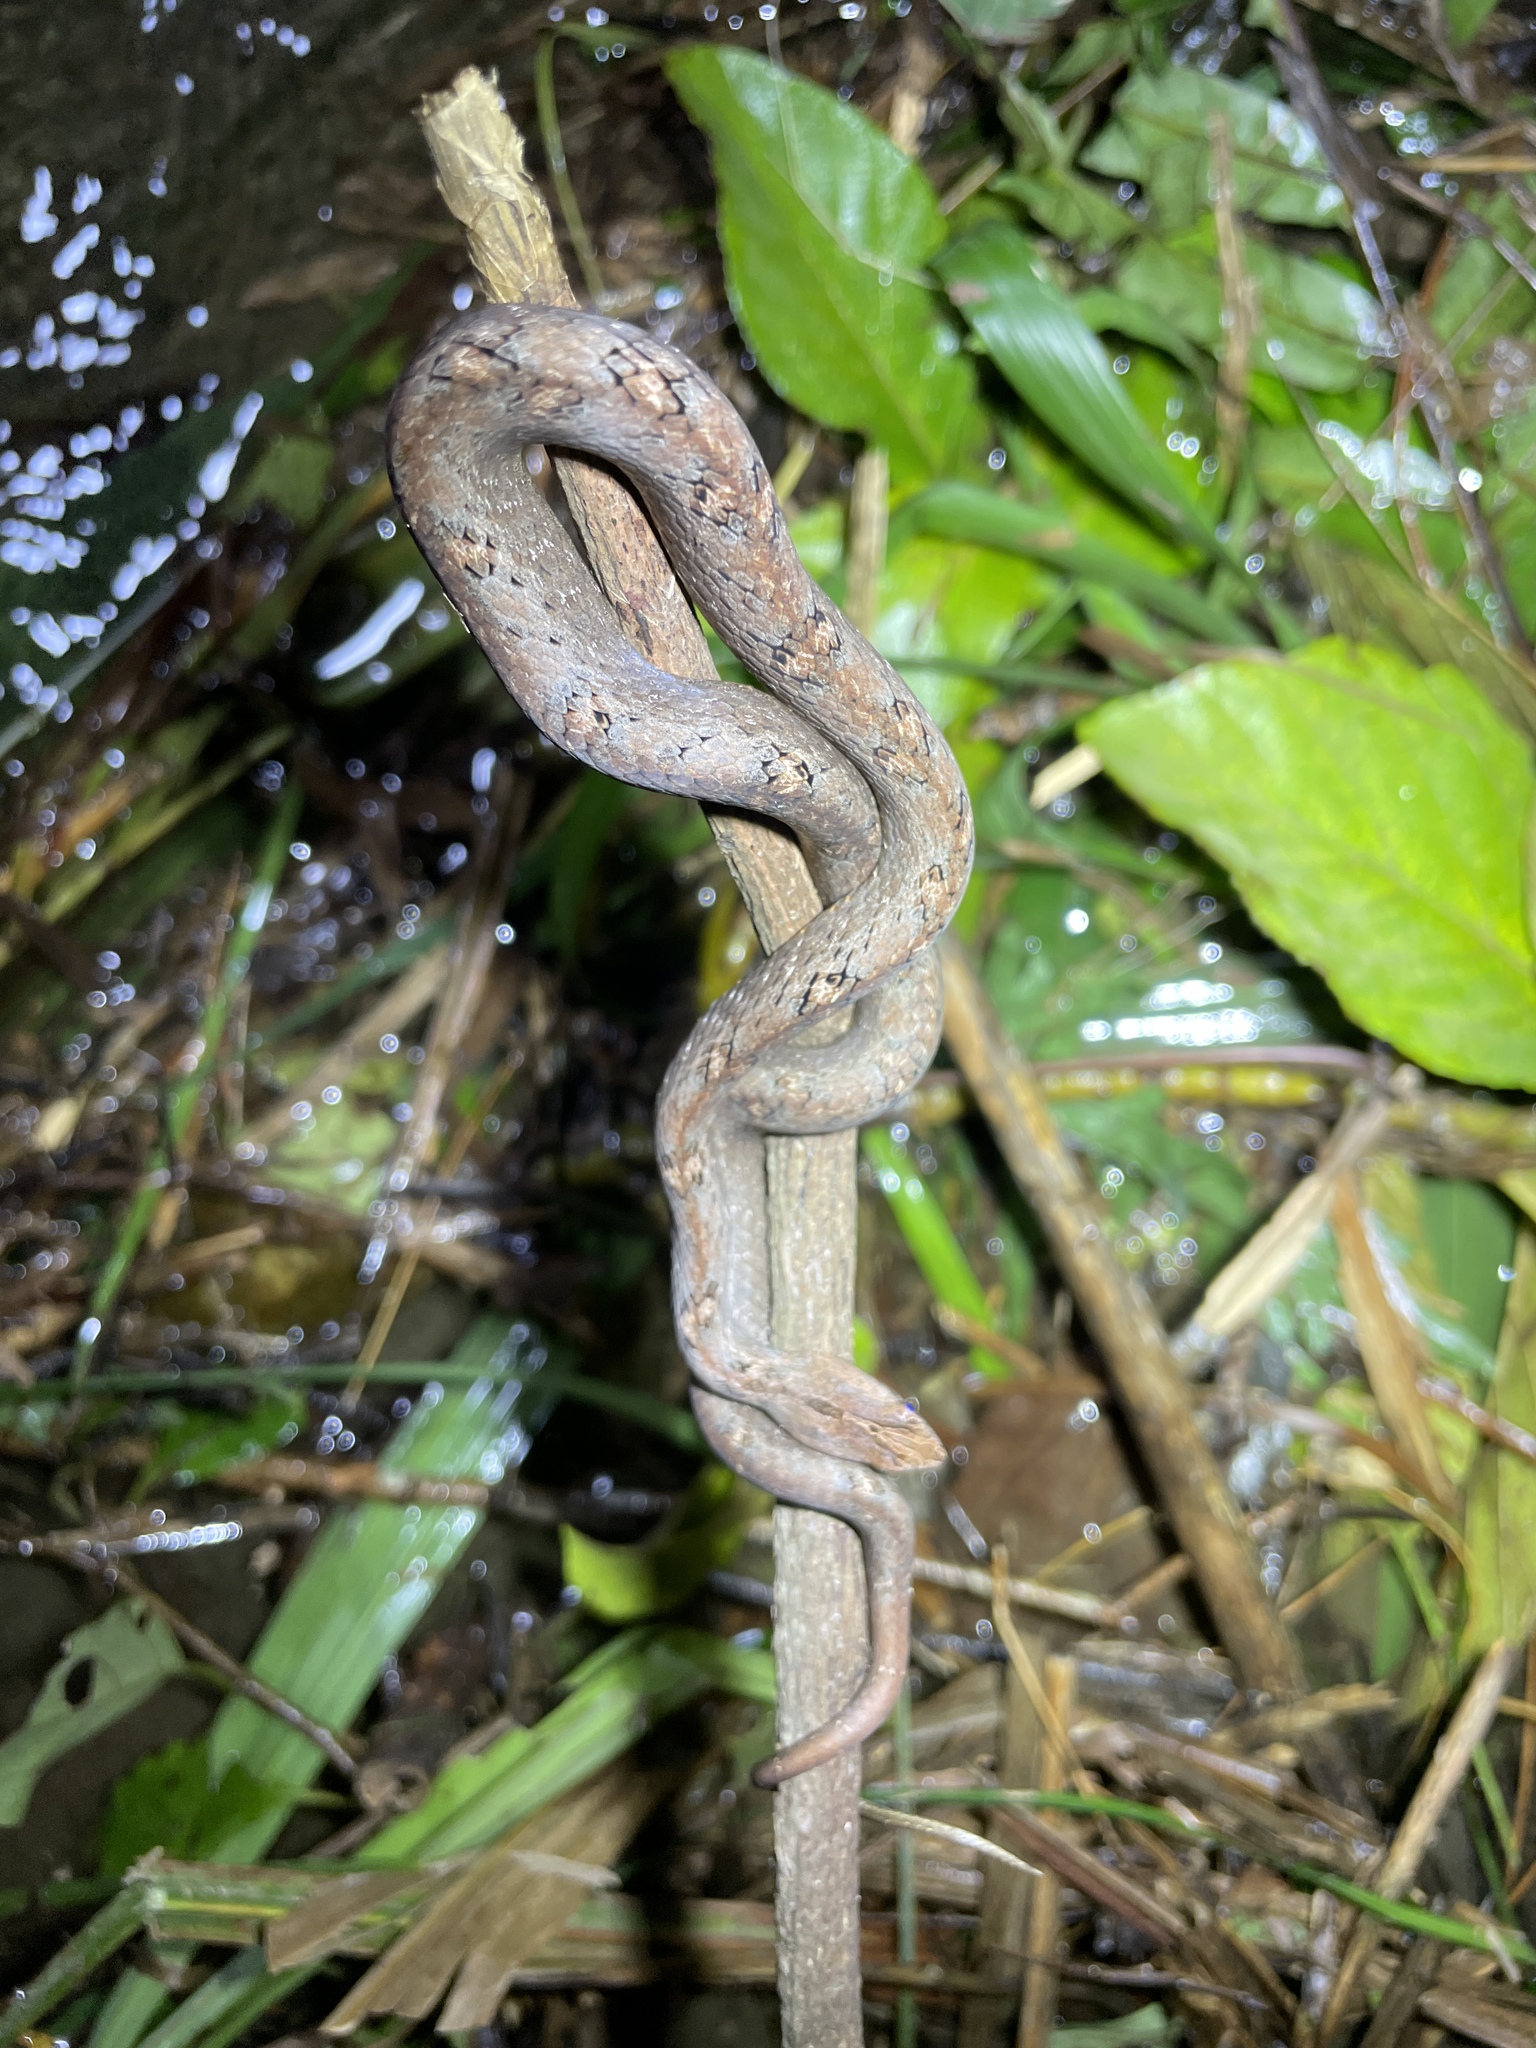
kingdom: Animalia
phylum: Chordata
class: Squamata
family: Pseudaspididae
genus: Psammodynastes
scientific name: Psammodynastes pulverulentus
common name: Common mock viper
